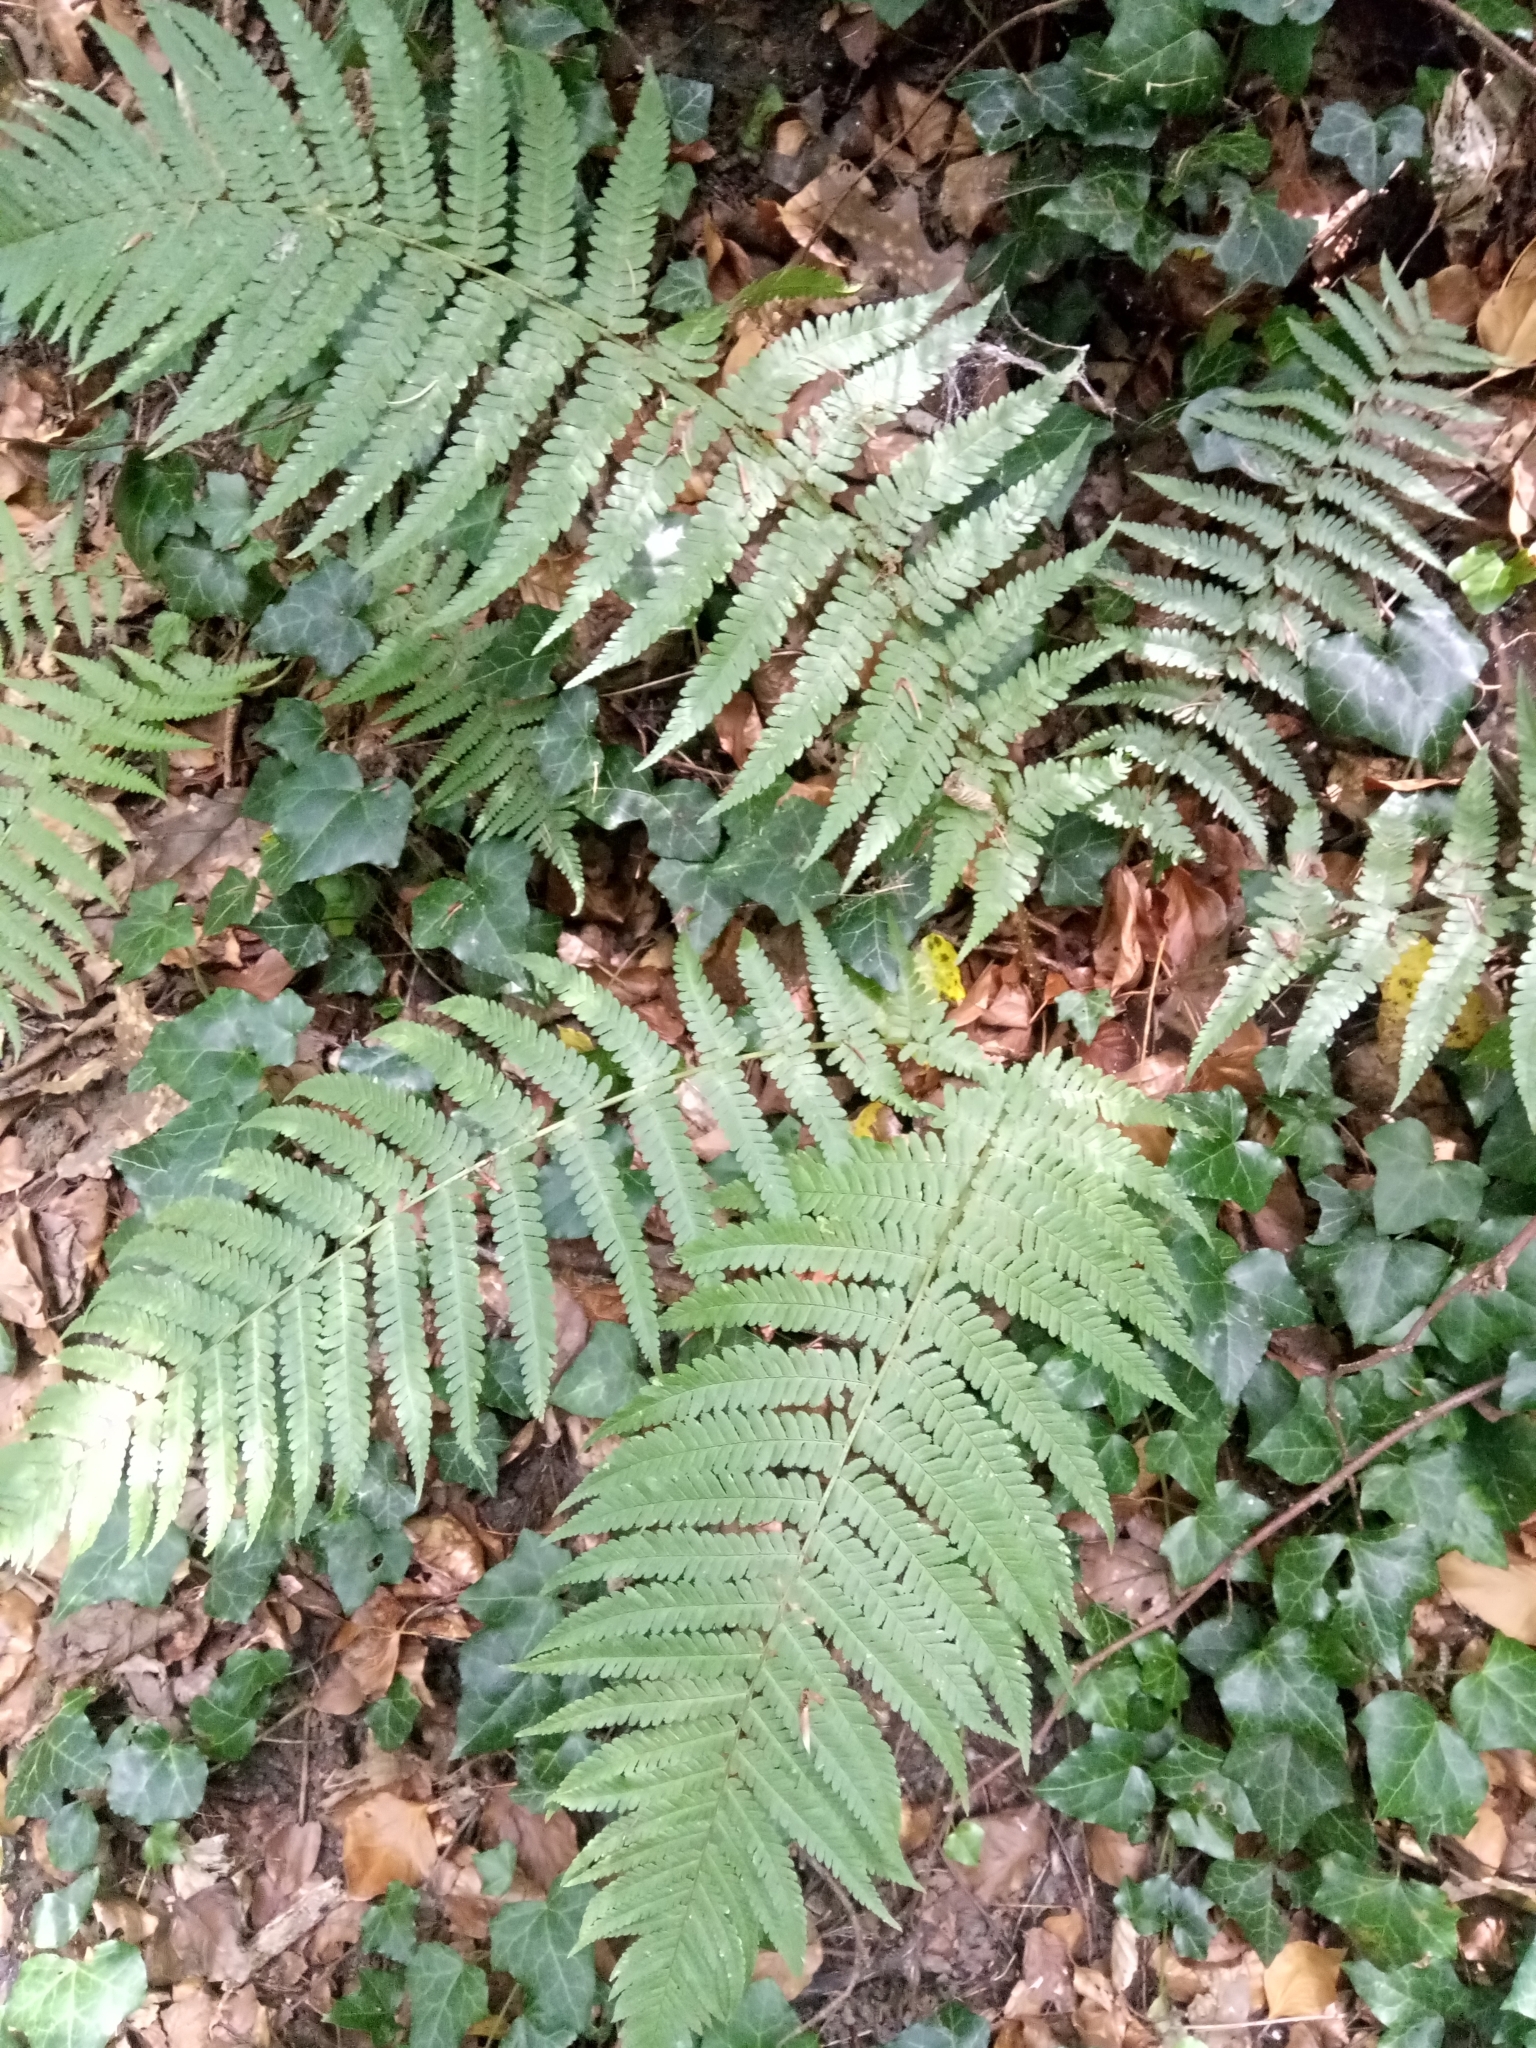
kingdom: Plantae
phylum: Tracheophyta
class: Polypodiopsida
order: Polypodiales
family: Dryopteridaceae
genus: Dryopteris
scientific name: Dryopteris filix-mas
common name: Male fern
